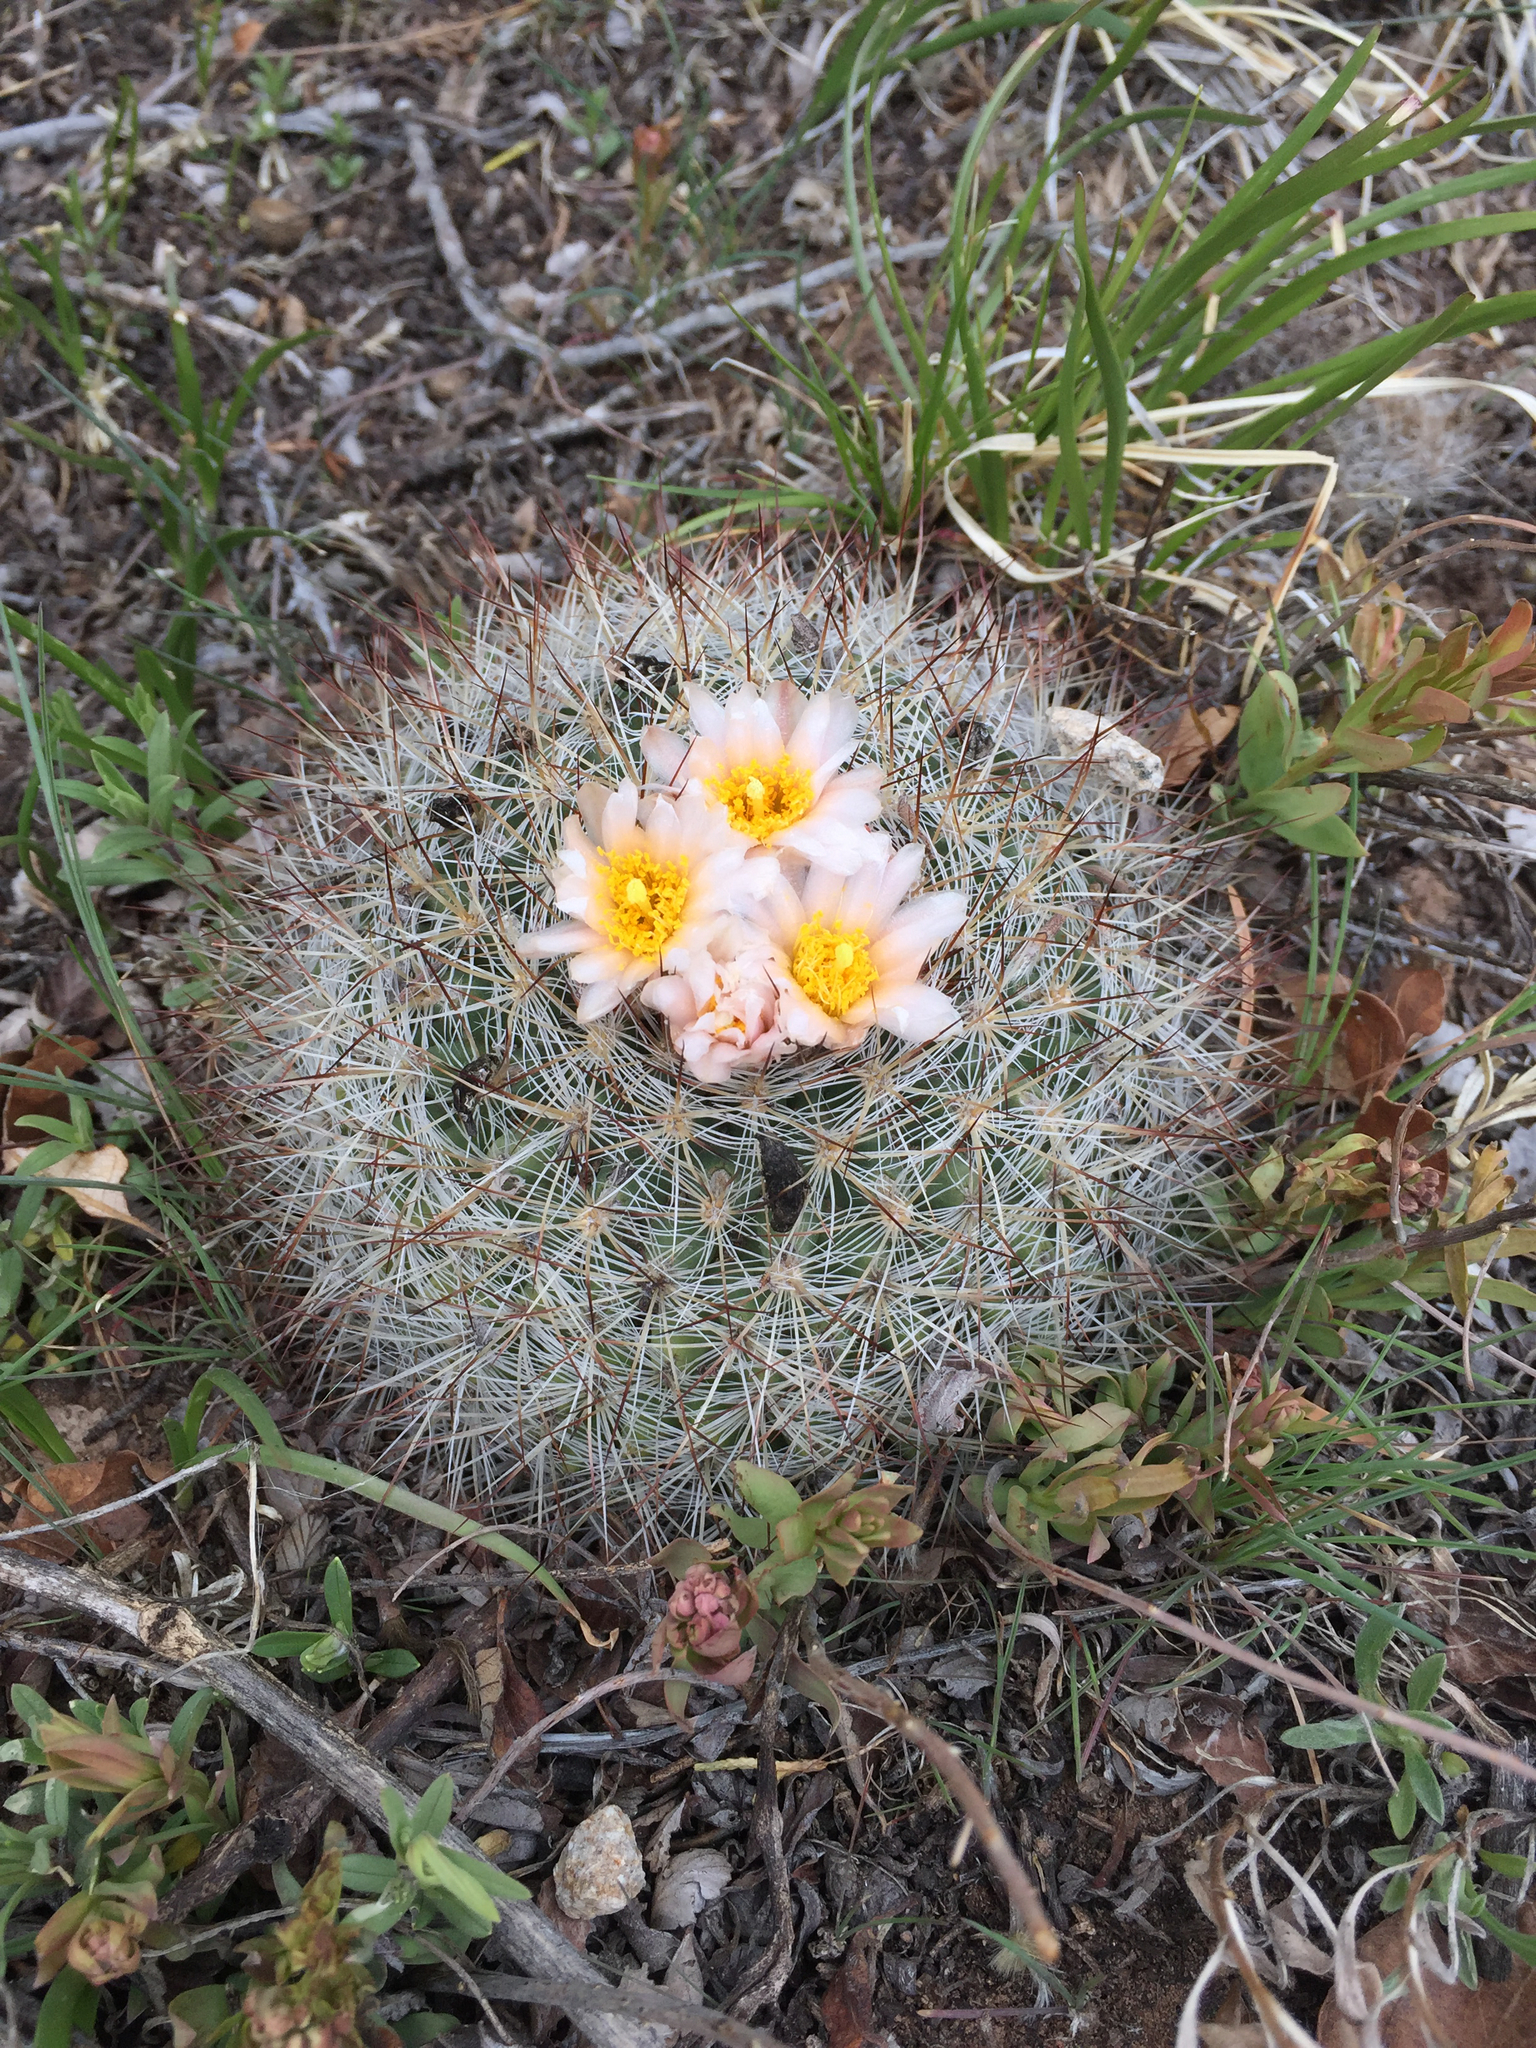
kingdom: Plantae
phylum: Tracheophyta
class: Magnoliopsida
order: Caryophyllales
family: Cactaceae
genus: Pediocactus
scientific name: Pediocactus simpsonii
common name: Simpson's hedgehog cactus
